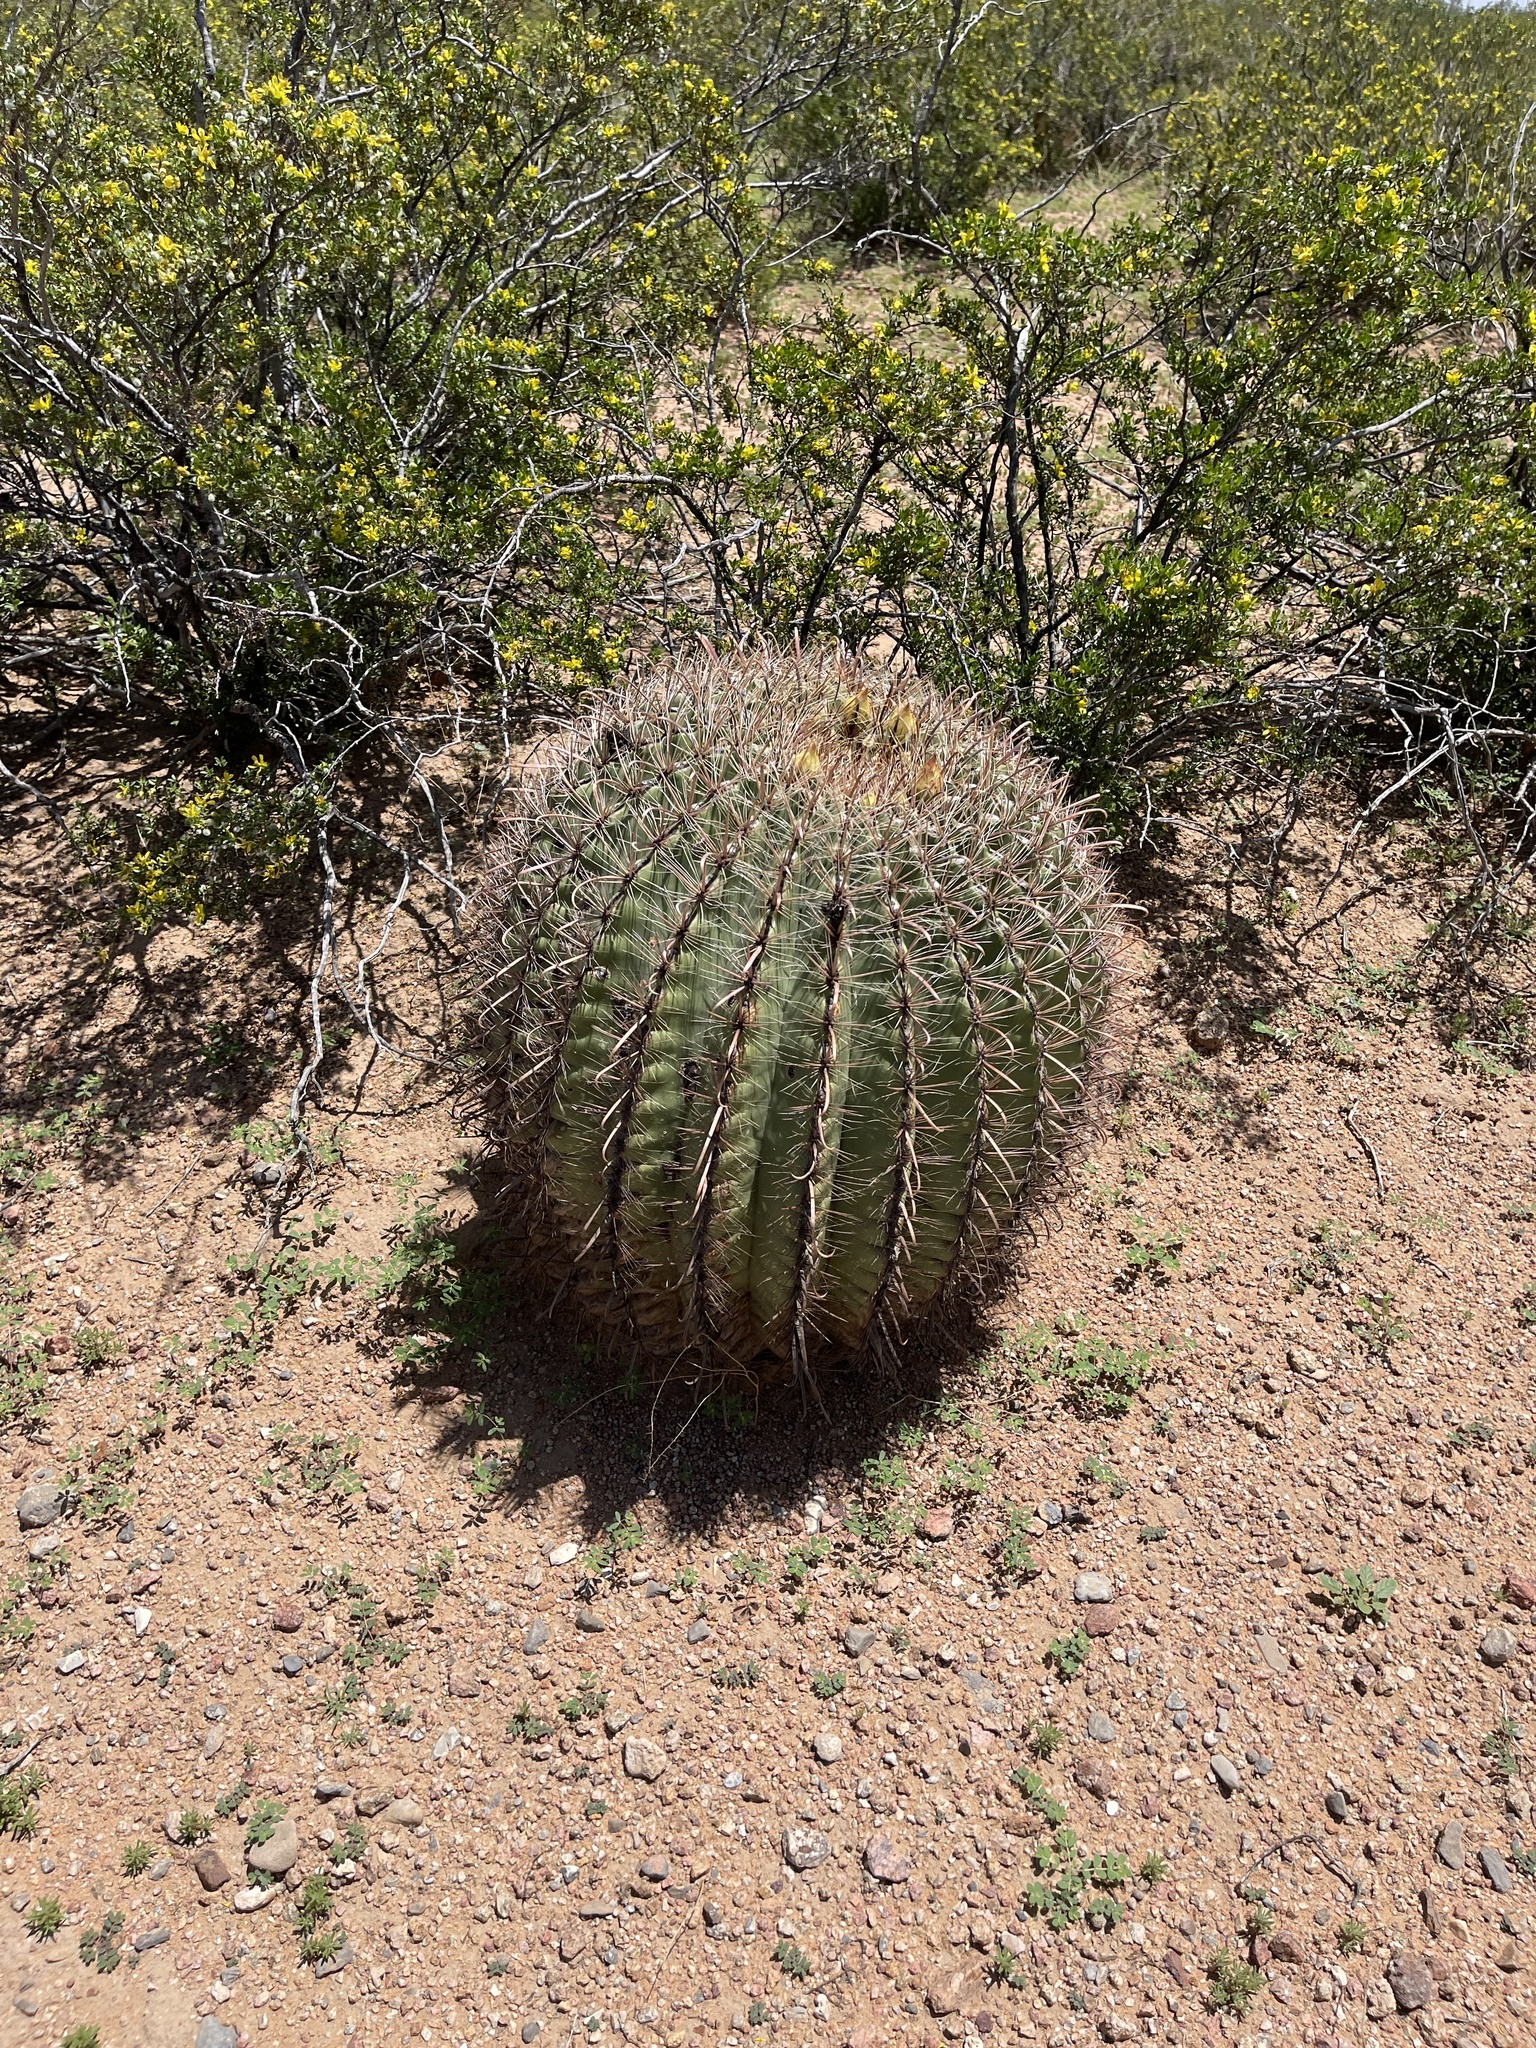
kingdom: Plantae
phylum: Tracheophyta
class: Magnoliopsida
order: Caryophyllales
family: Cactaceae
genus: Ferocactus
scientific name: Ferocactus wislizeni
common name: Candy barrel cactus
